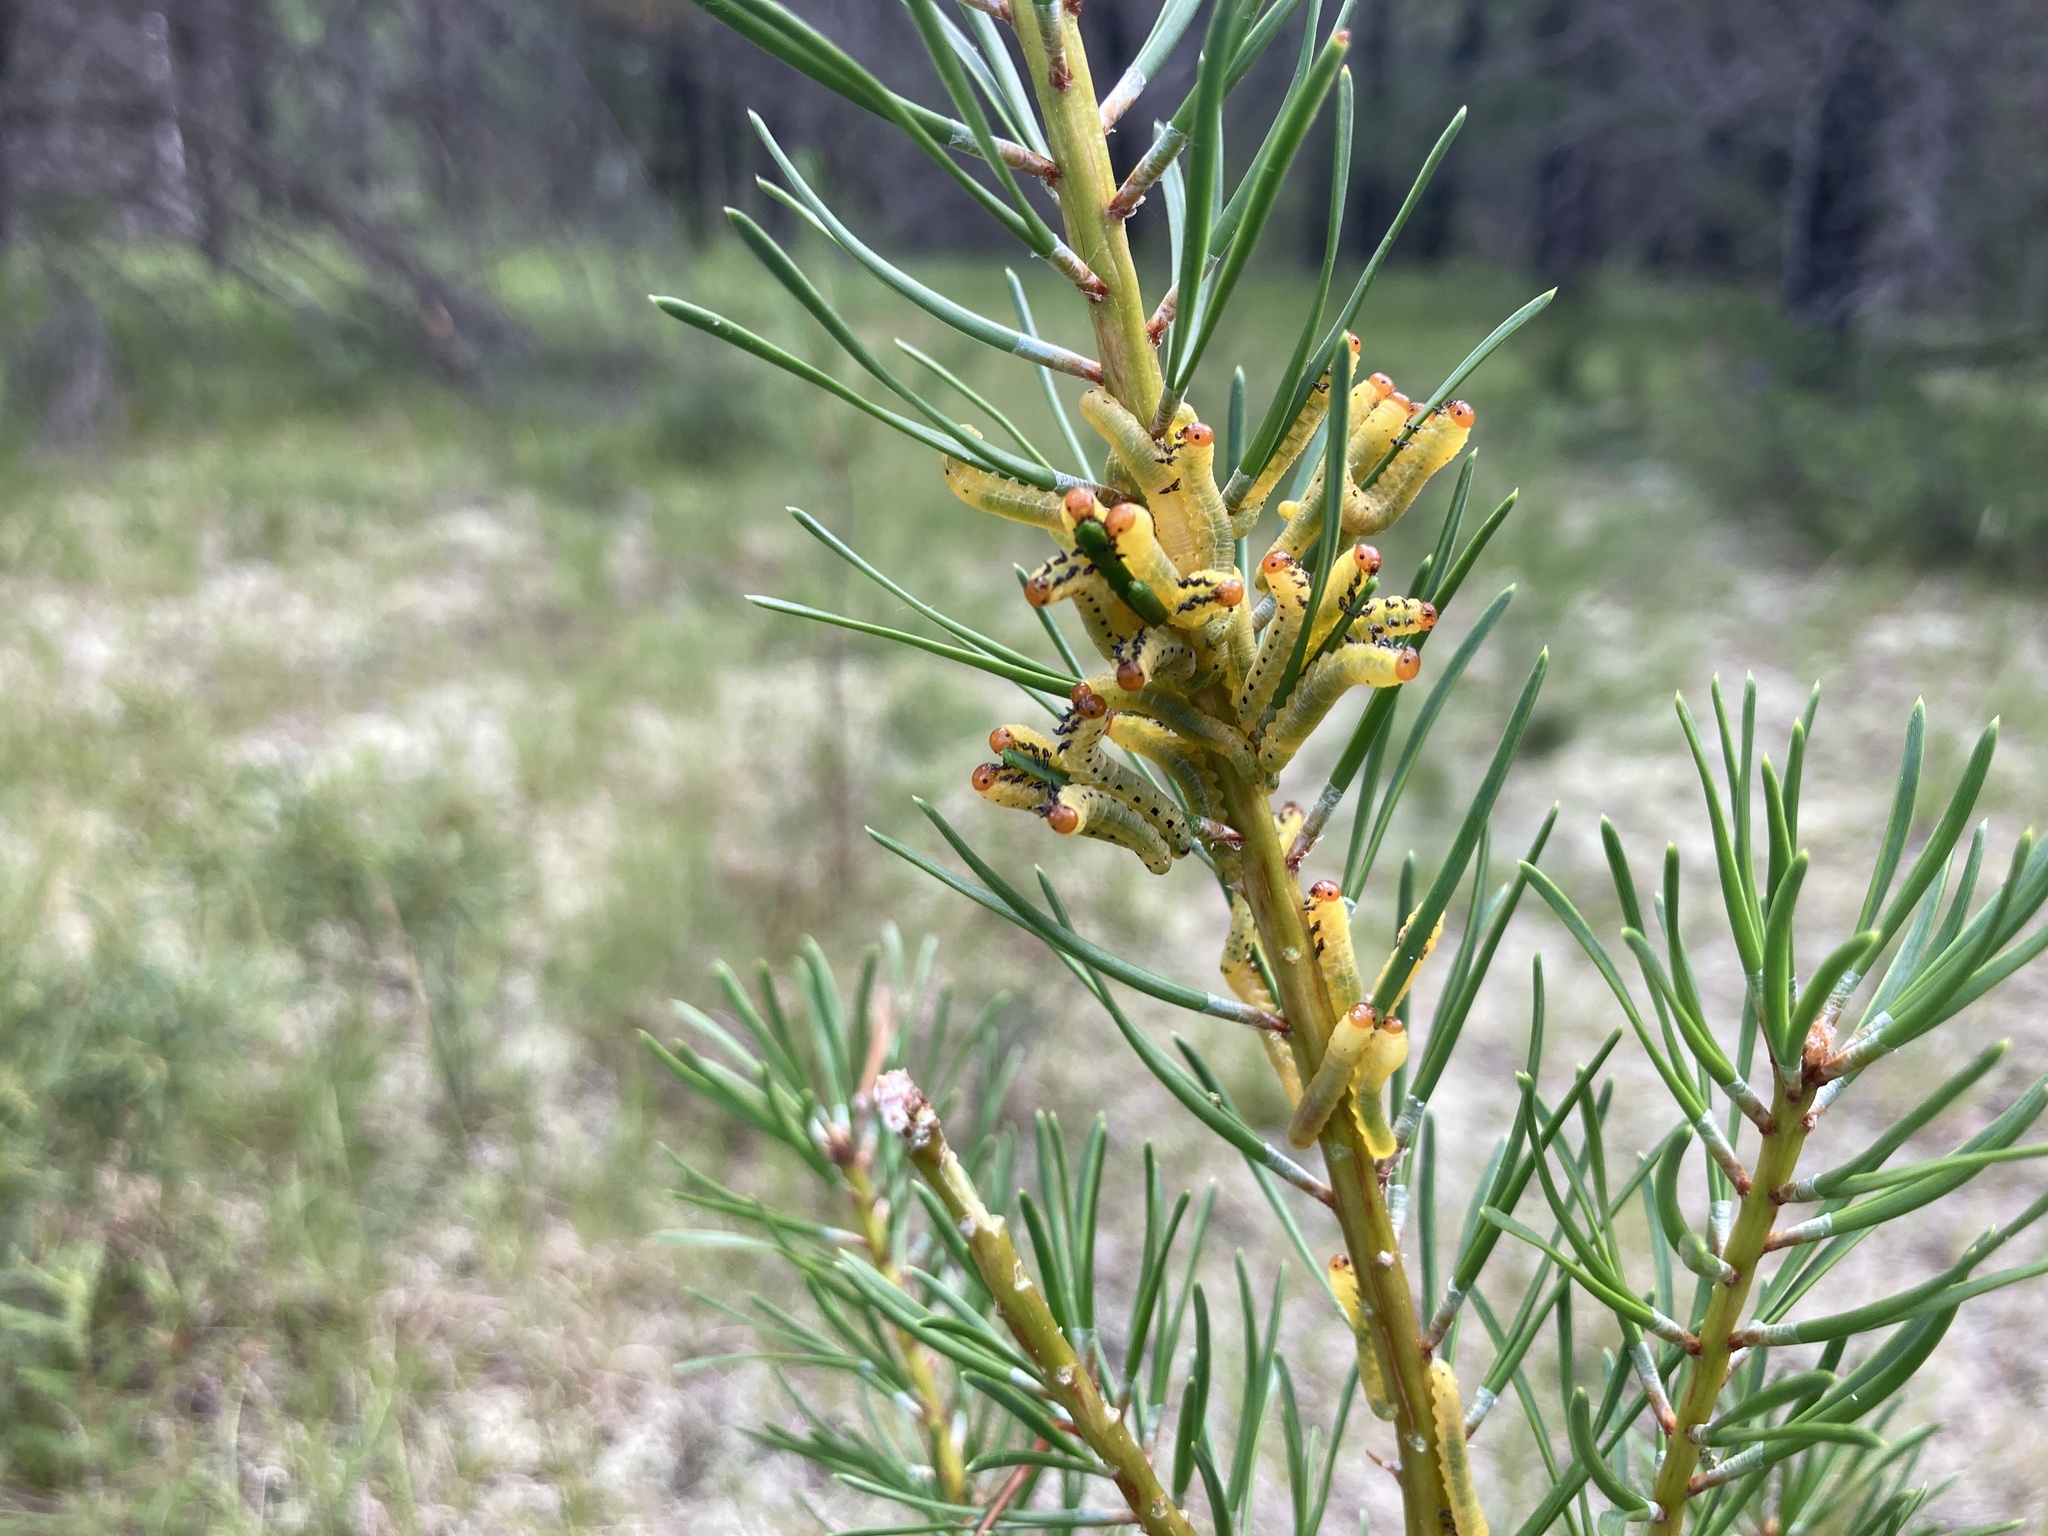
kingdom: Animalia
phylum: Arthropoda
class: Insecta
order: Hymenoptera
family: Diprionidae
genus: Neodiprion
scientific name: Neodiprion lecontei
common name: Redheaded pine sawfly
